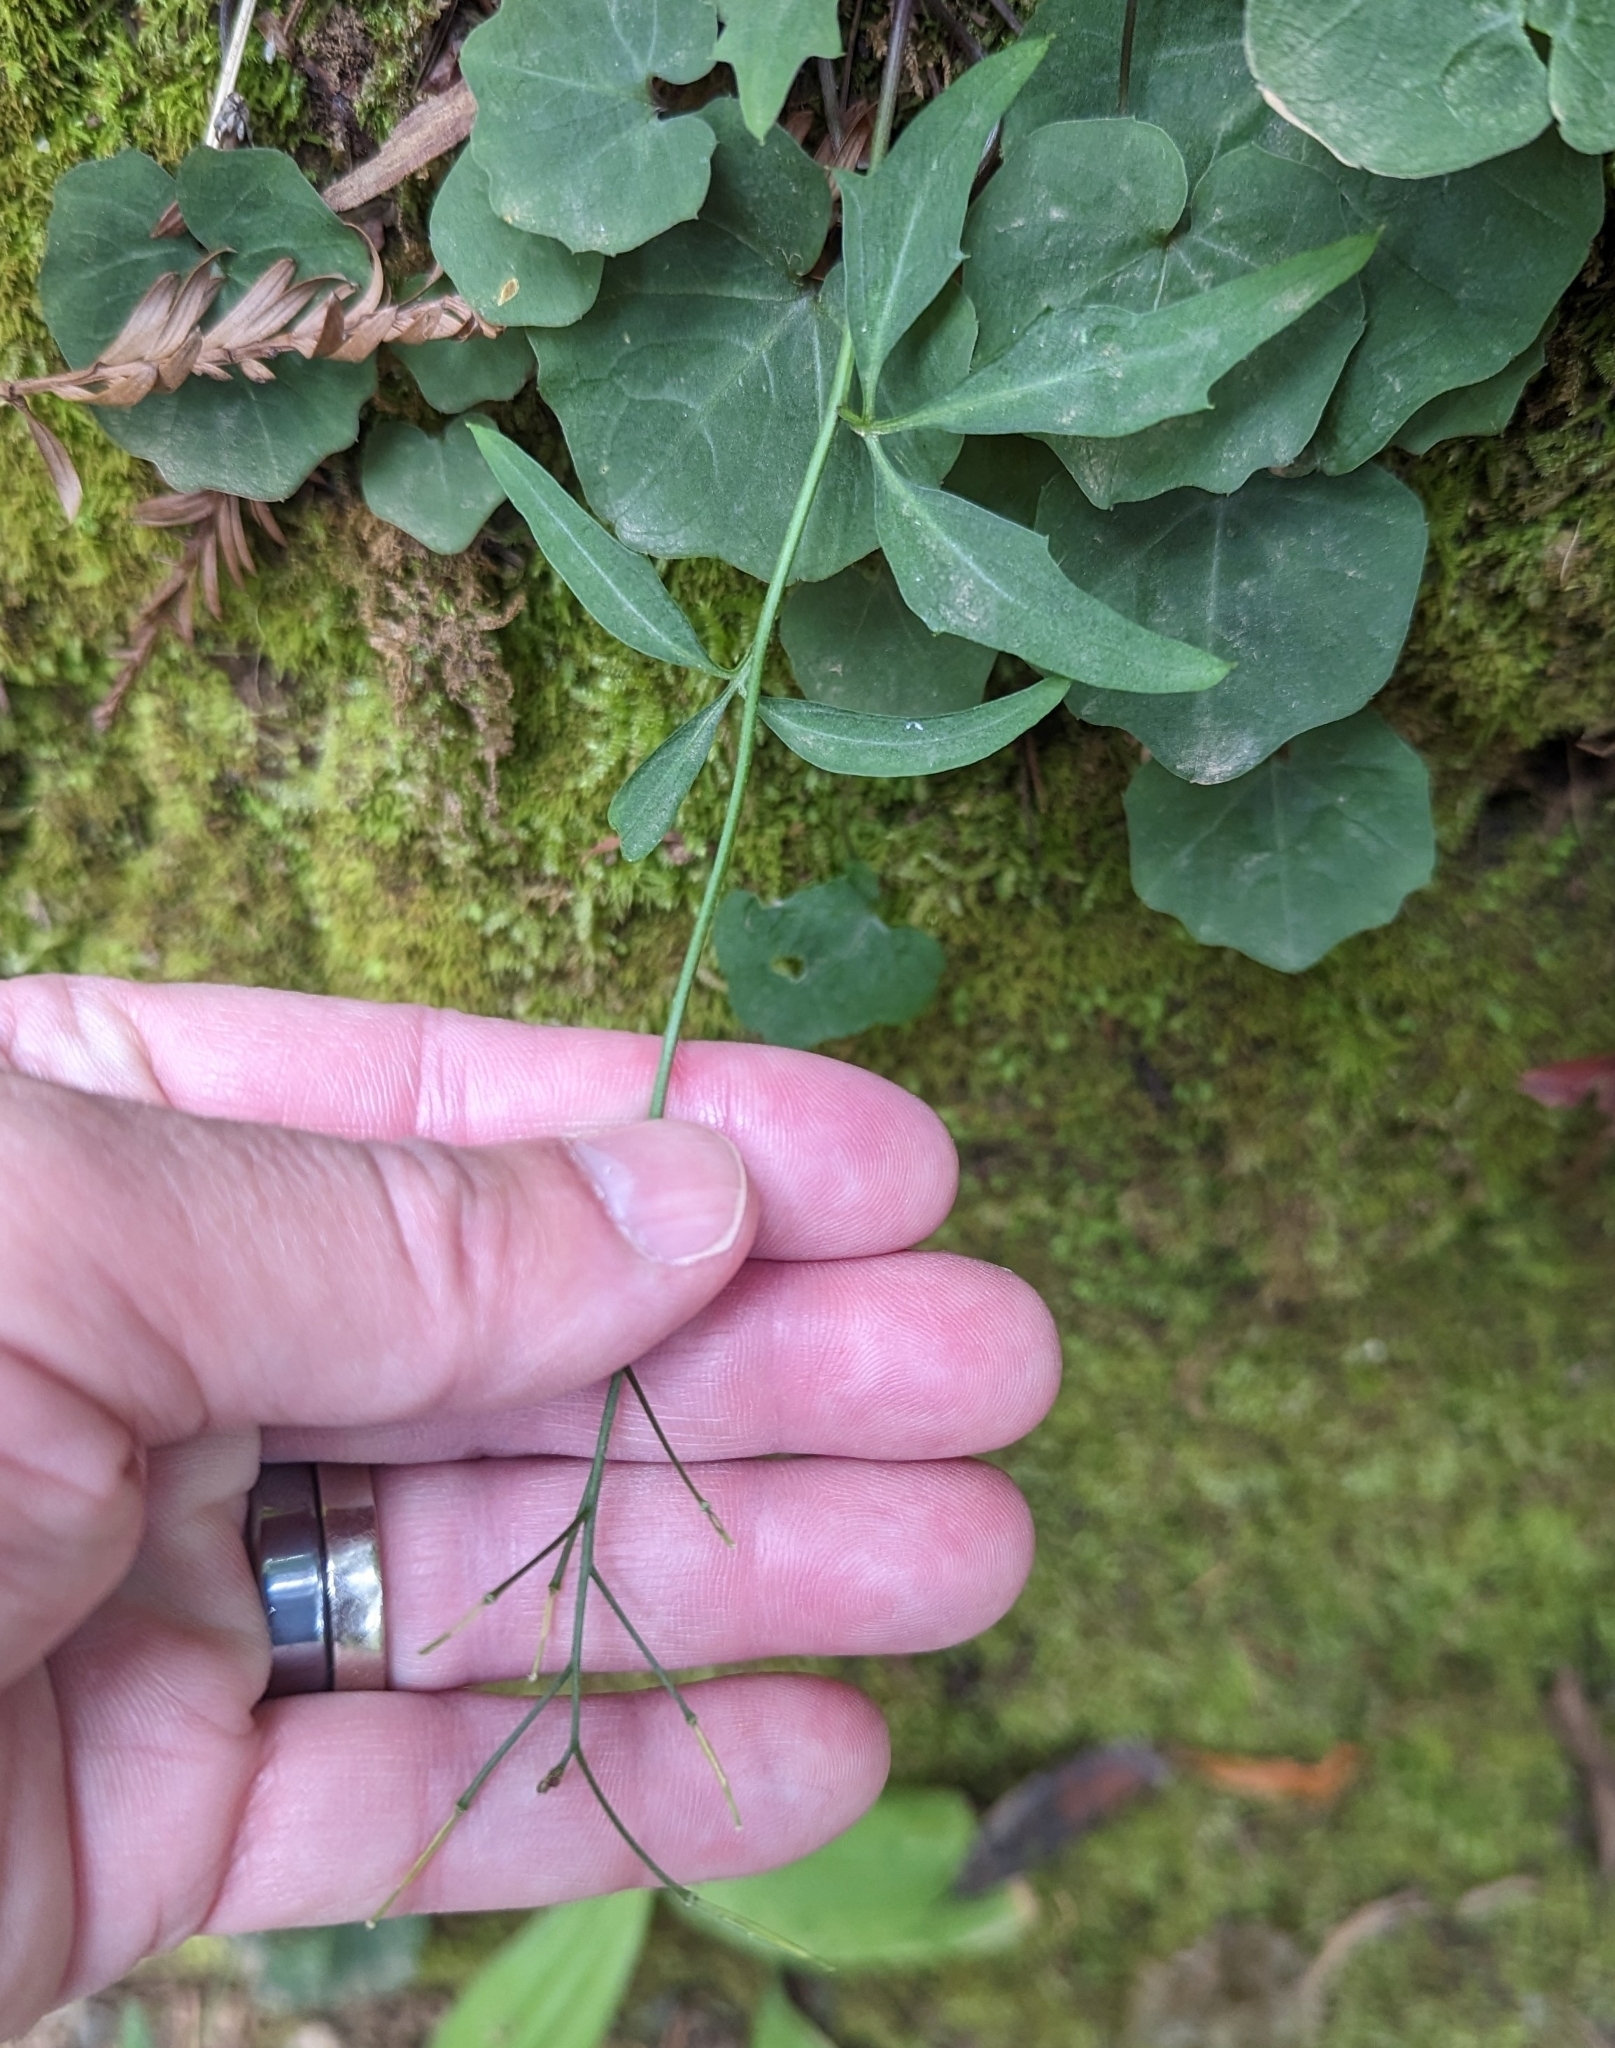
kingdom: Plantae
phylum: Tracheophyta
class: Magnoliopsida
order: Brassicales
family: Brassicaceae
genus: Cardamine
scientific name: Cardamine californica
